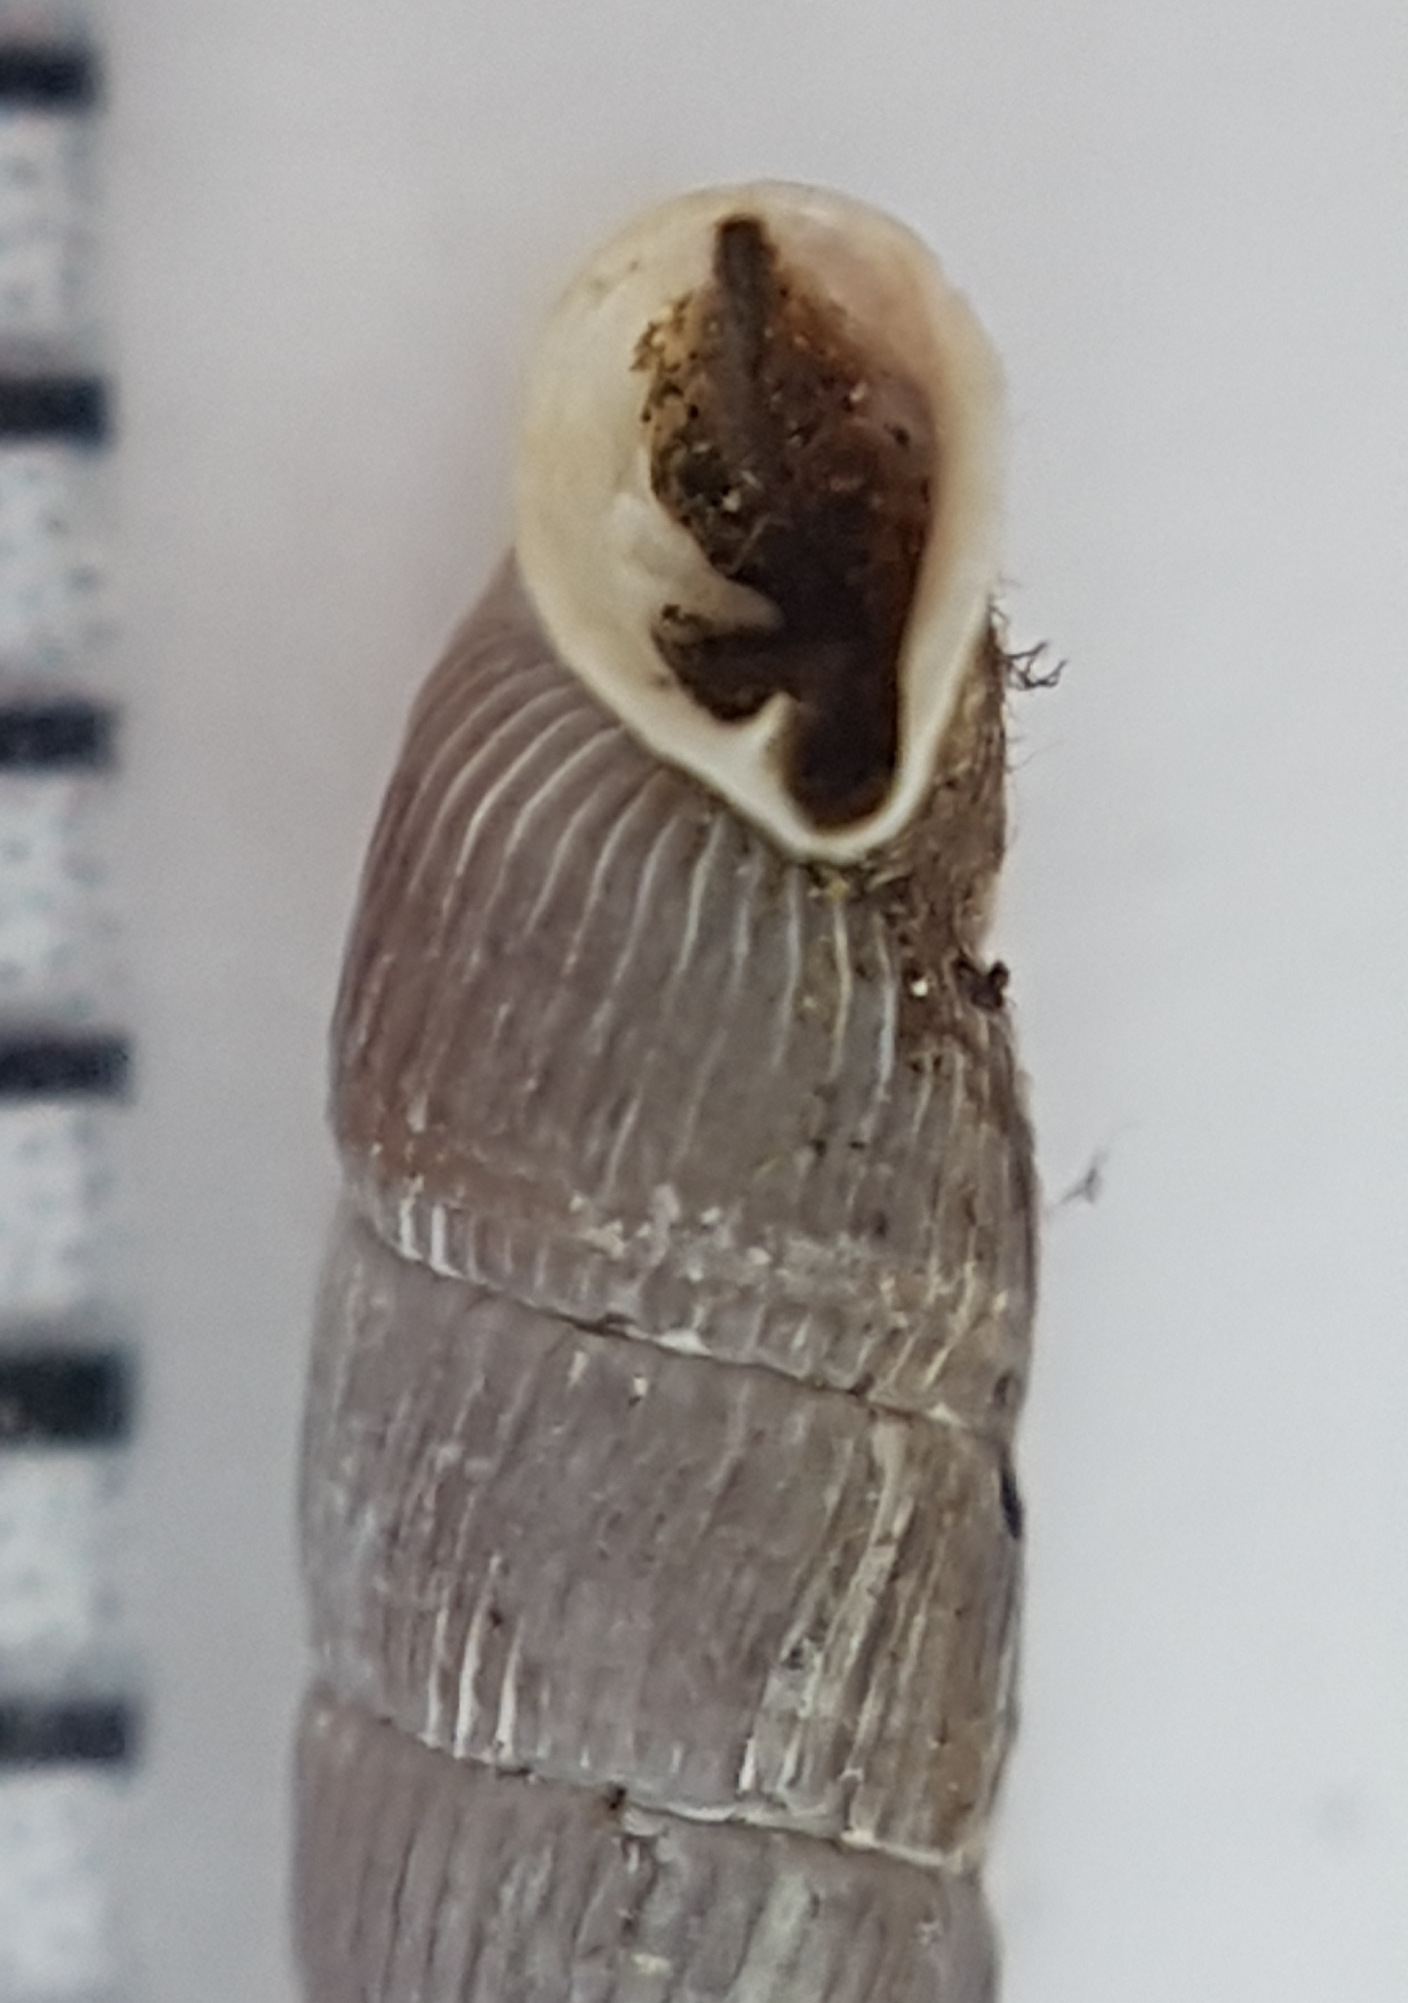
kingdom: Animalia
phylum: Mollusca
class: Gastropoda
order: Stylommatophora
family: Clausiliidae
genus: Clausilia
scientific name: Clausilia rugosa
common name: Tiny door snail
